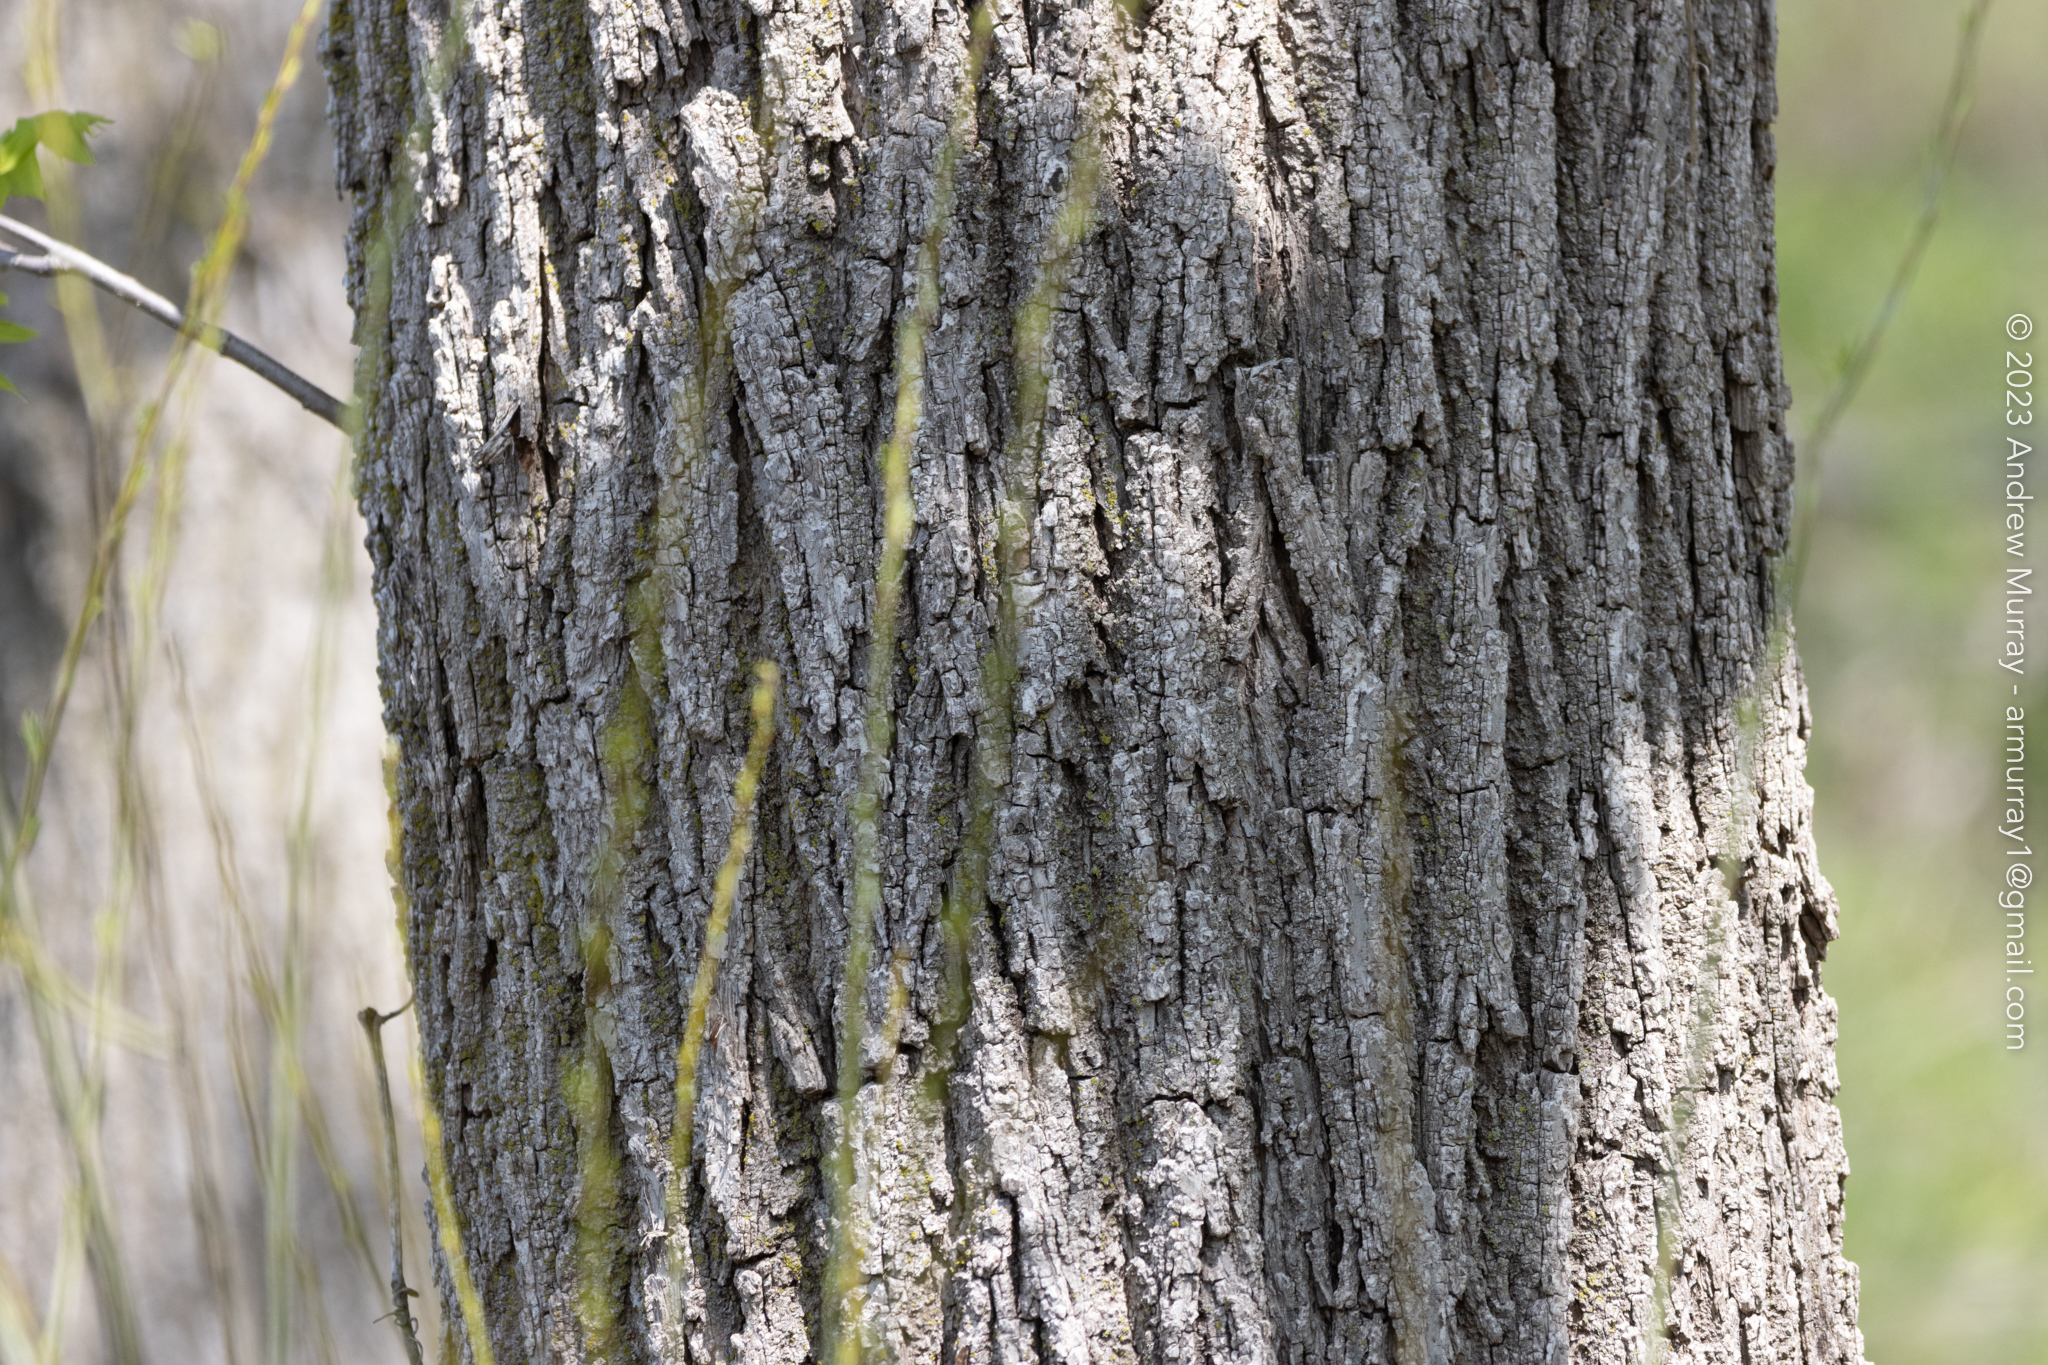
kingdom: Plantae
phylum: Tracheophyta
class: Magnoliopsida
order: Fagales
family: Juglandaceae
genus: Juglans
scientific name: Juglans nigra
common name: Black walnut
